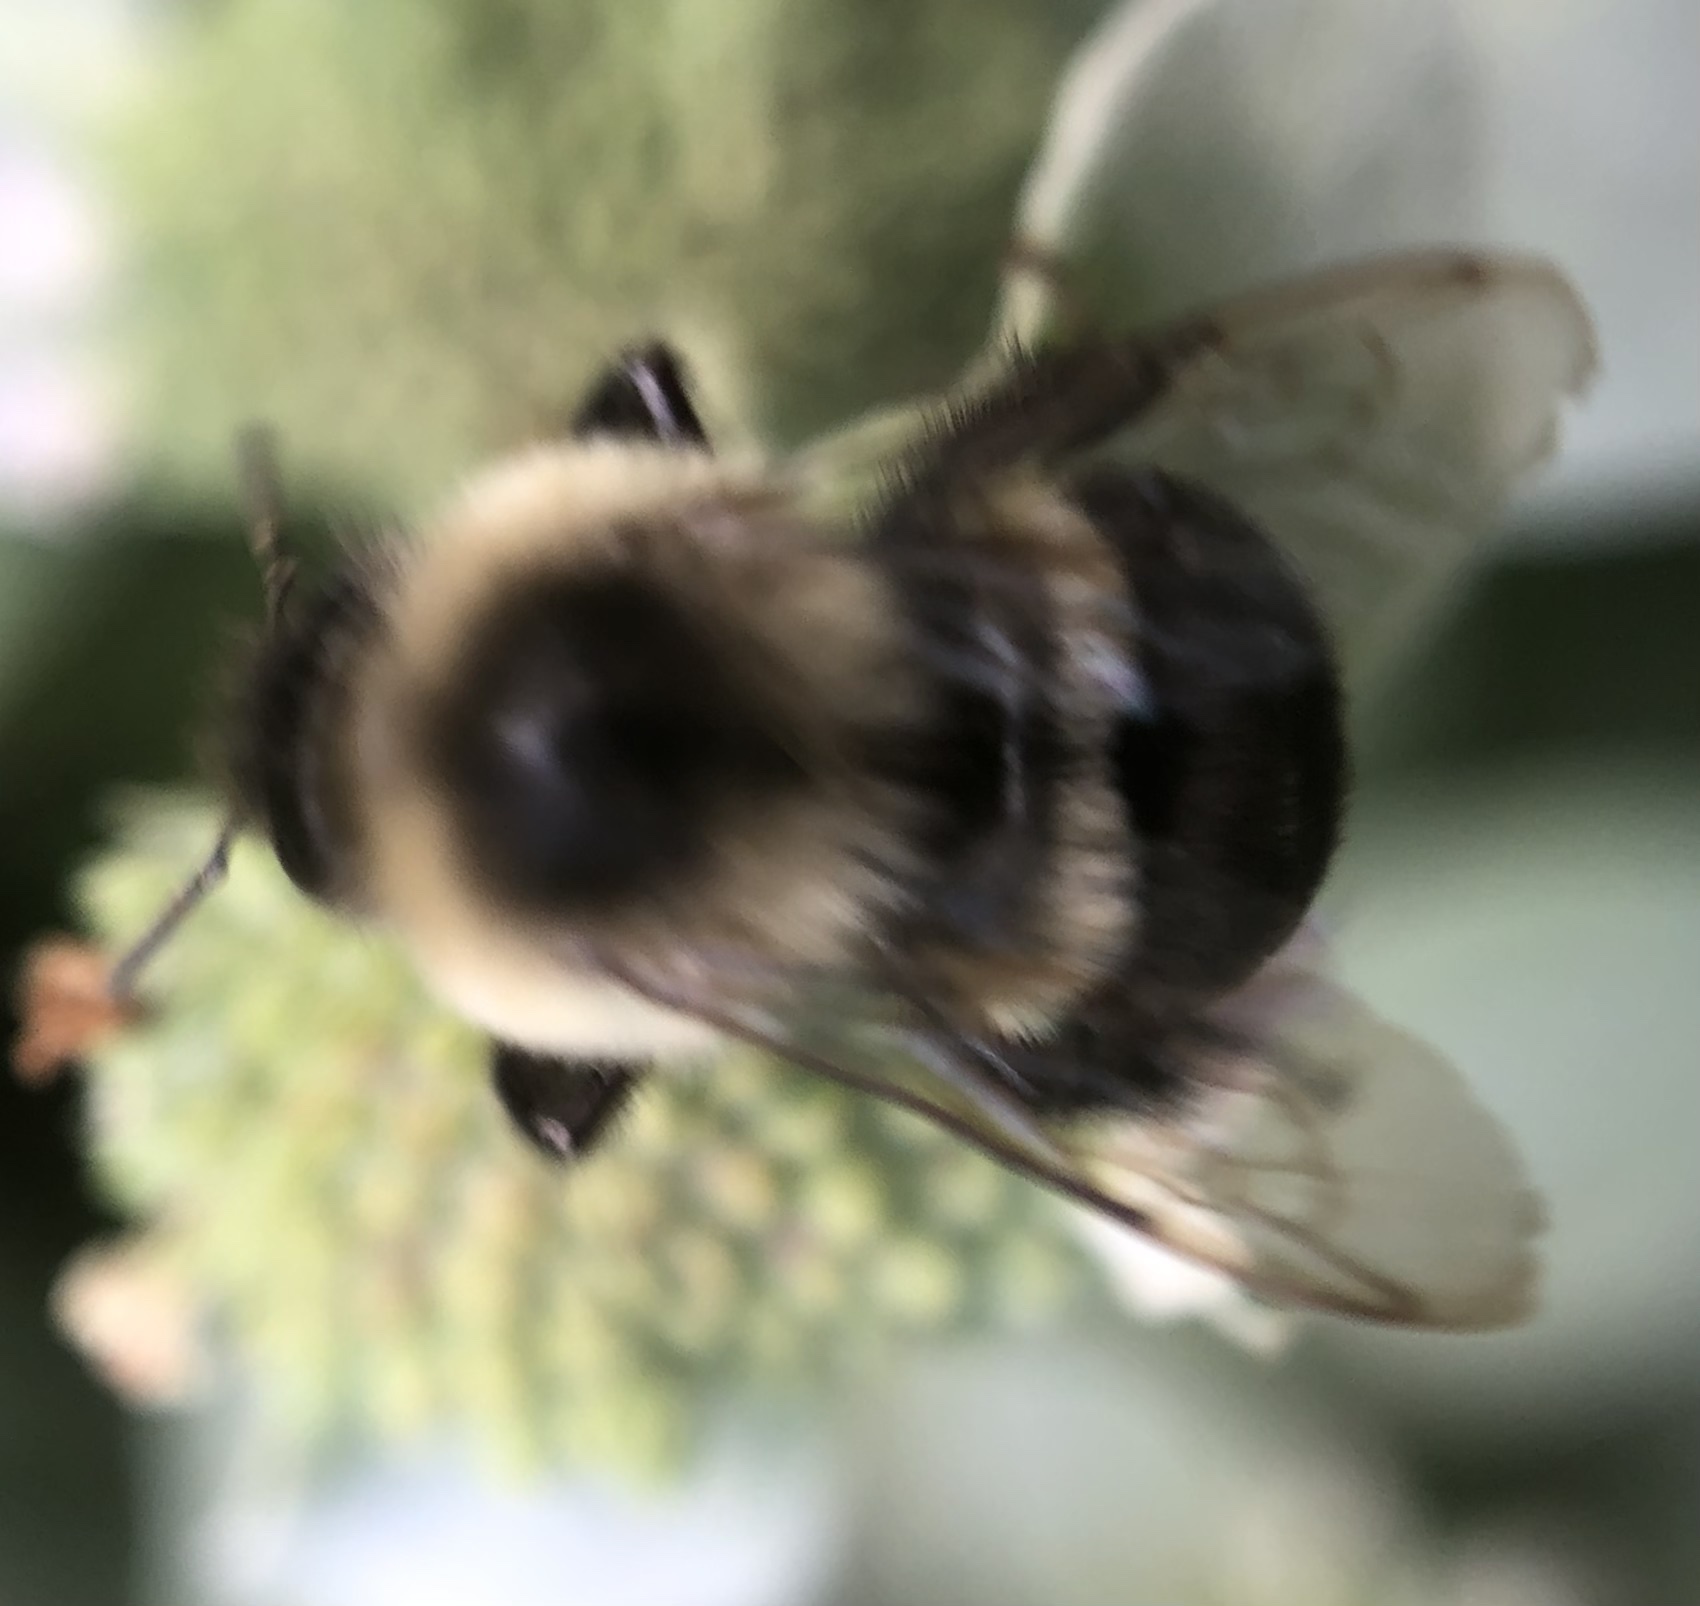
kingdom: Animalia
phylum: Arthropoda
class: Insecta
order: Hymenoptera
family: Apidae
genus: Bombus
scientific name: Bombus impatiens
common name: Common eastern bumble bee
